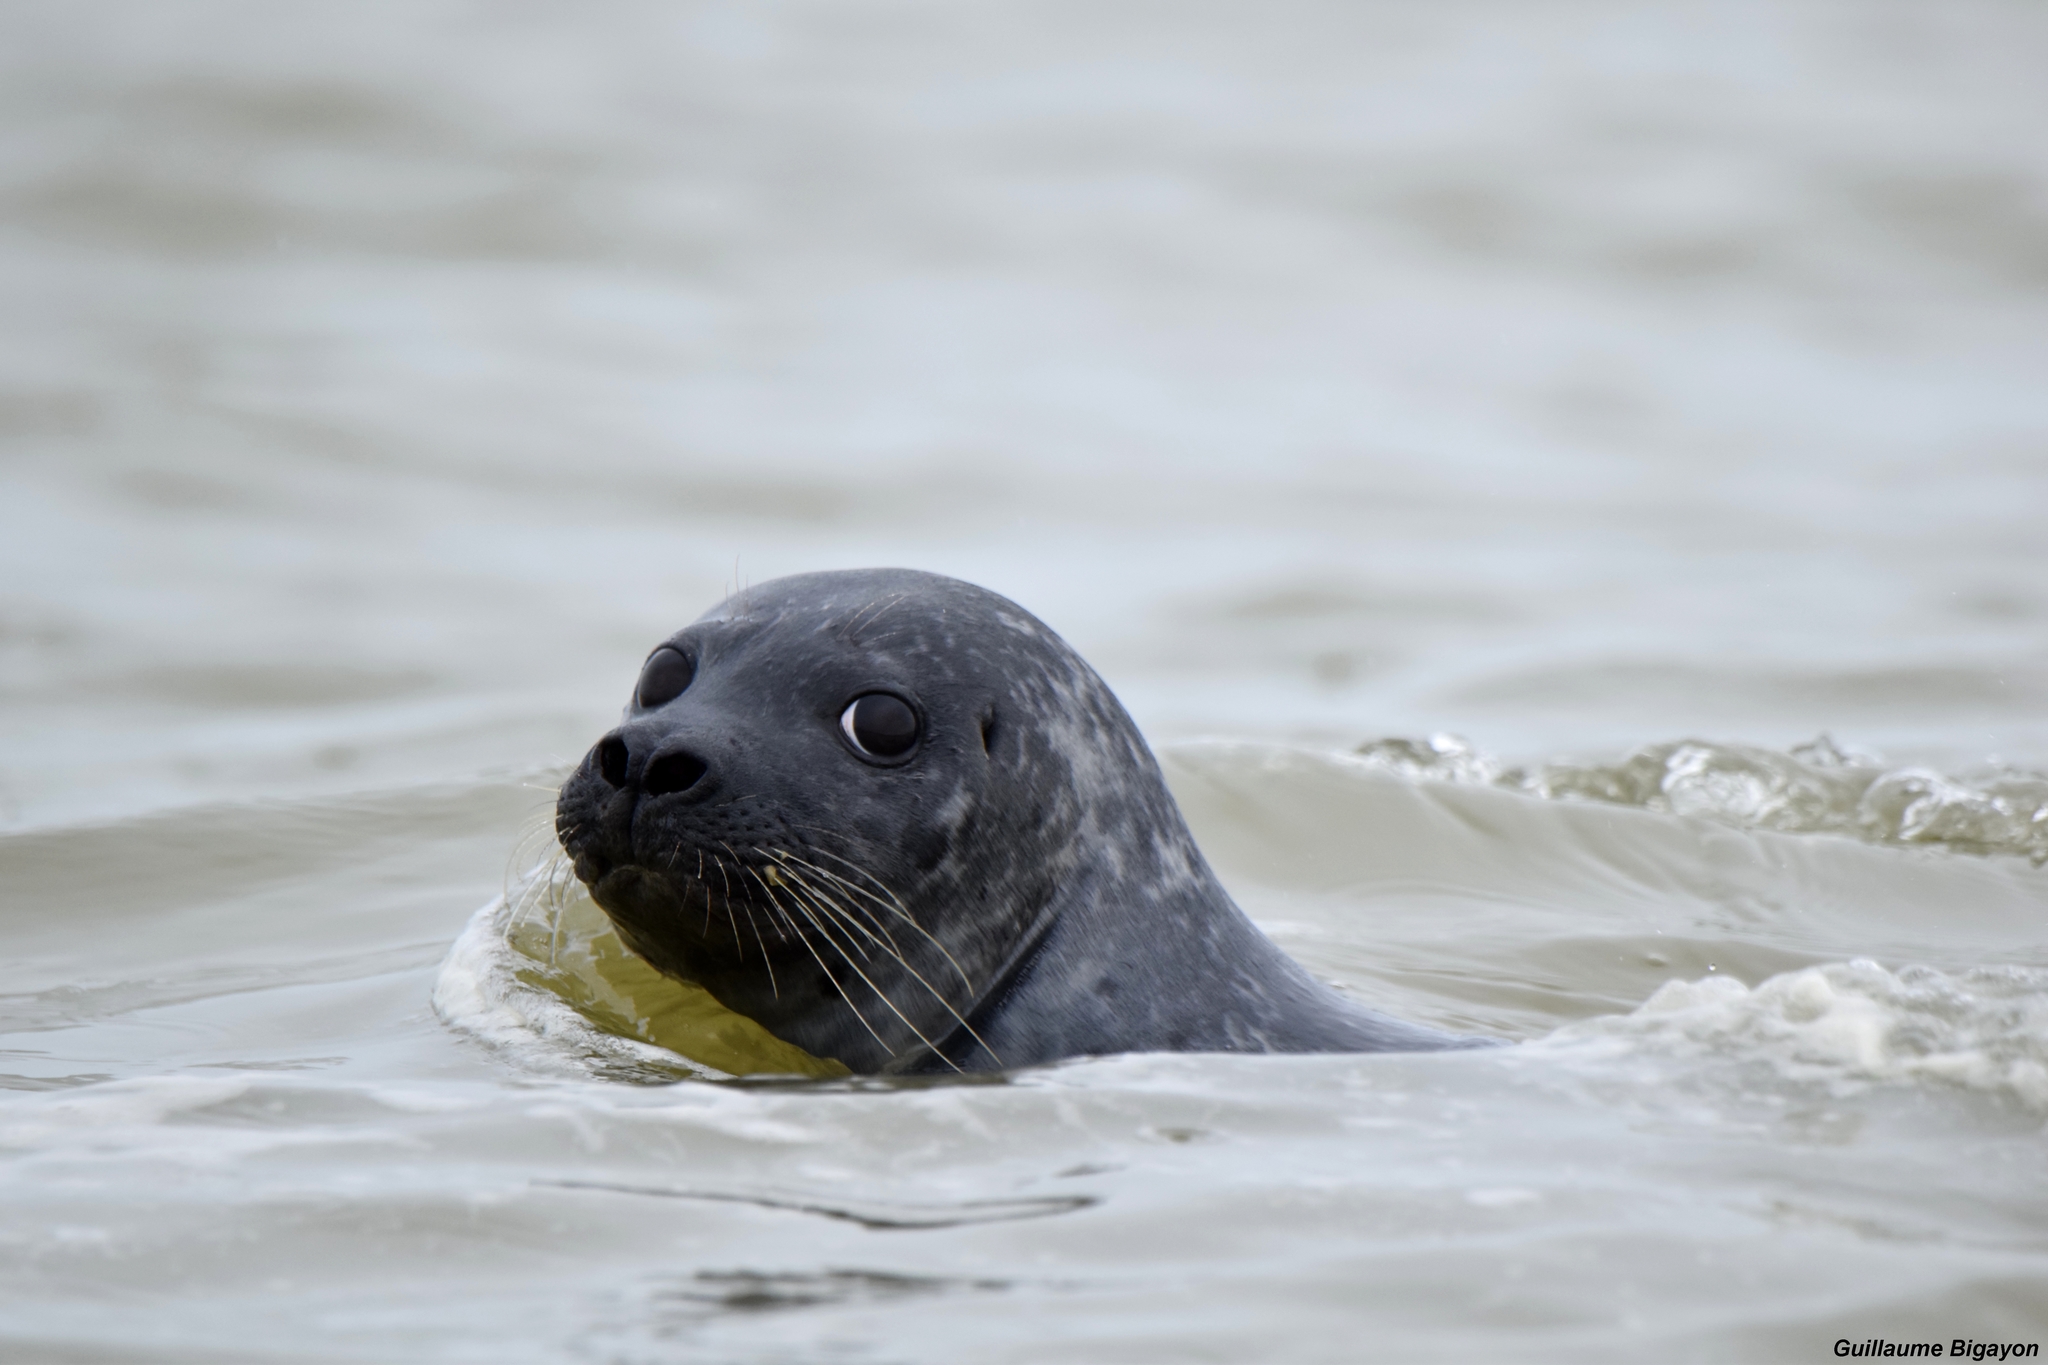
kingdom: Animalia
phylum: Chordata
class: Mammalia
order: Carnivora
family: Phocidae
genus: Phoca
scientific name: Phoca vitulina
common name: Harbor seal
